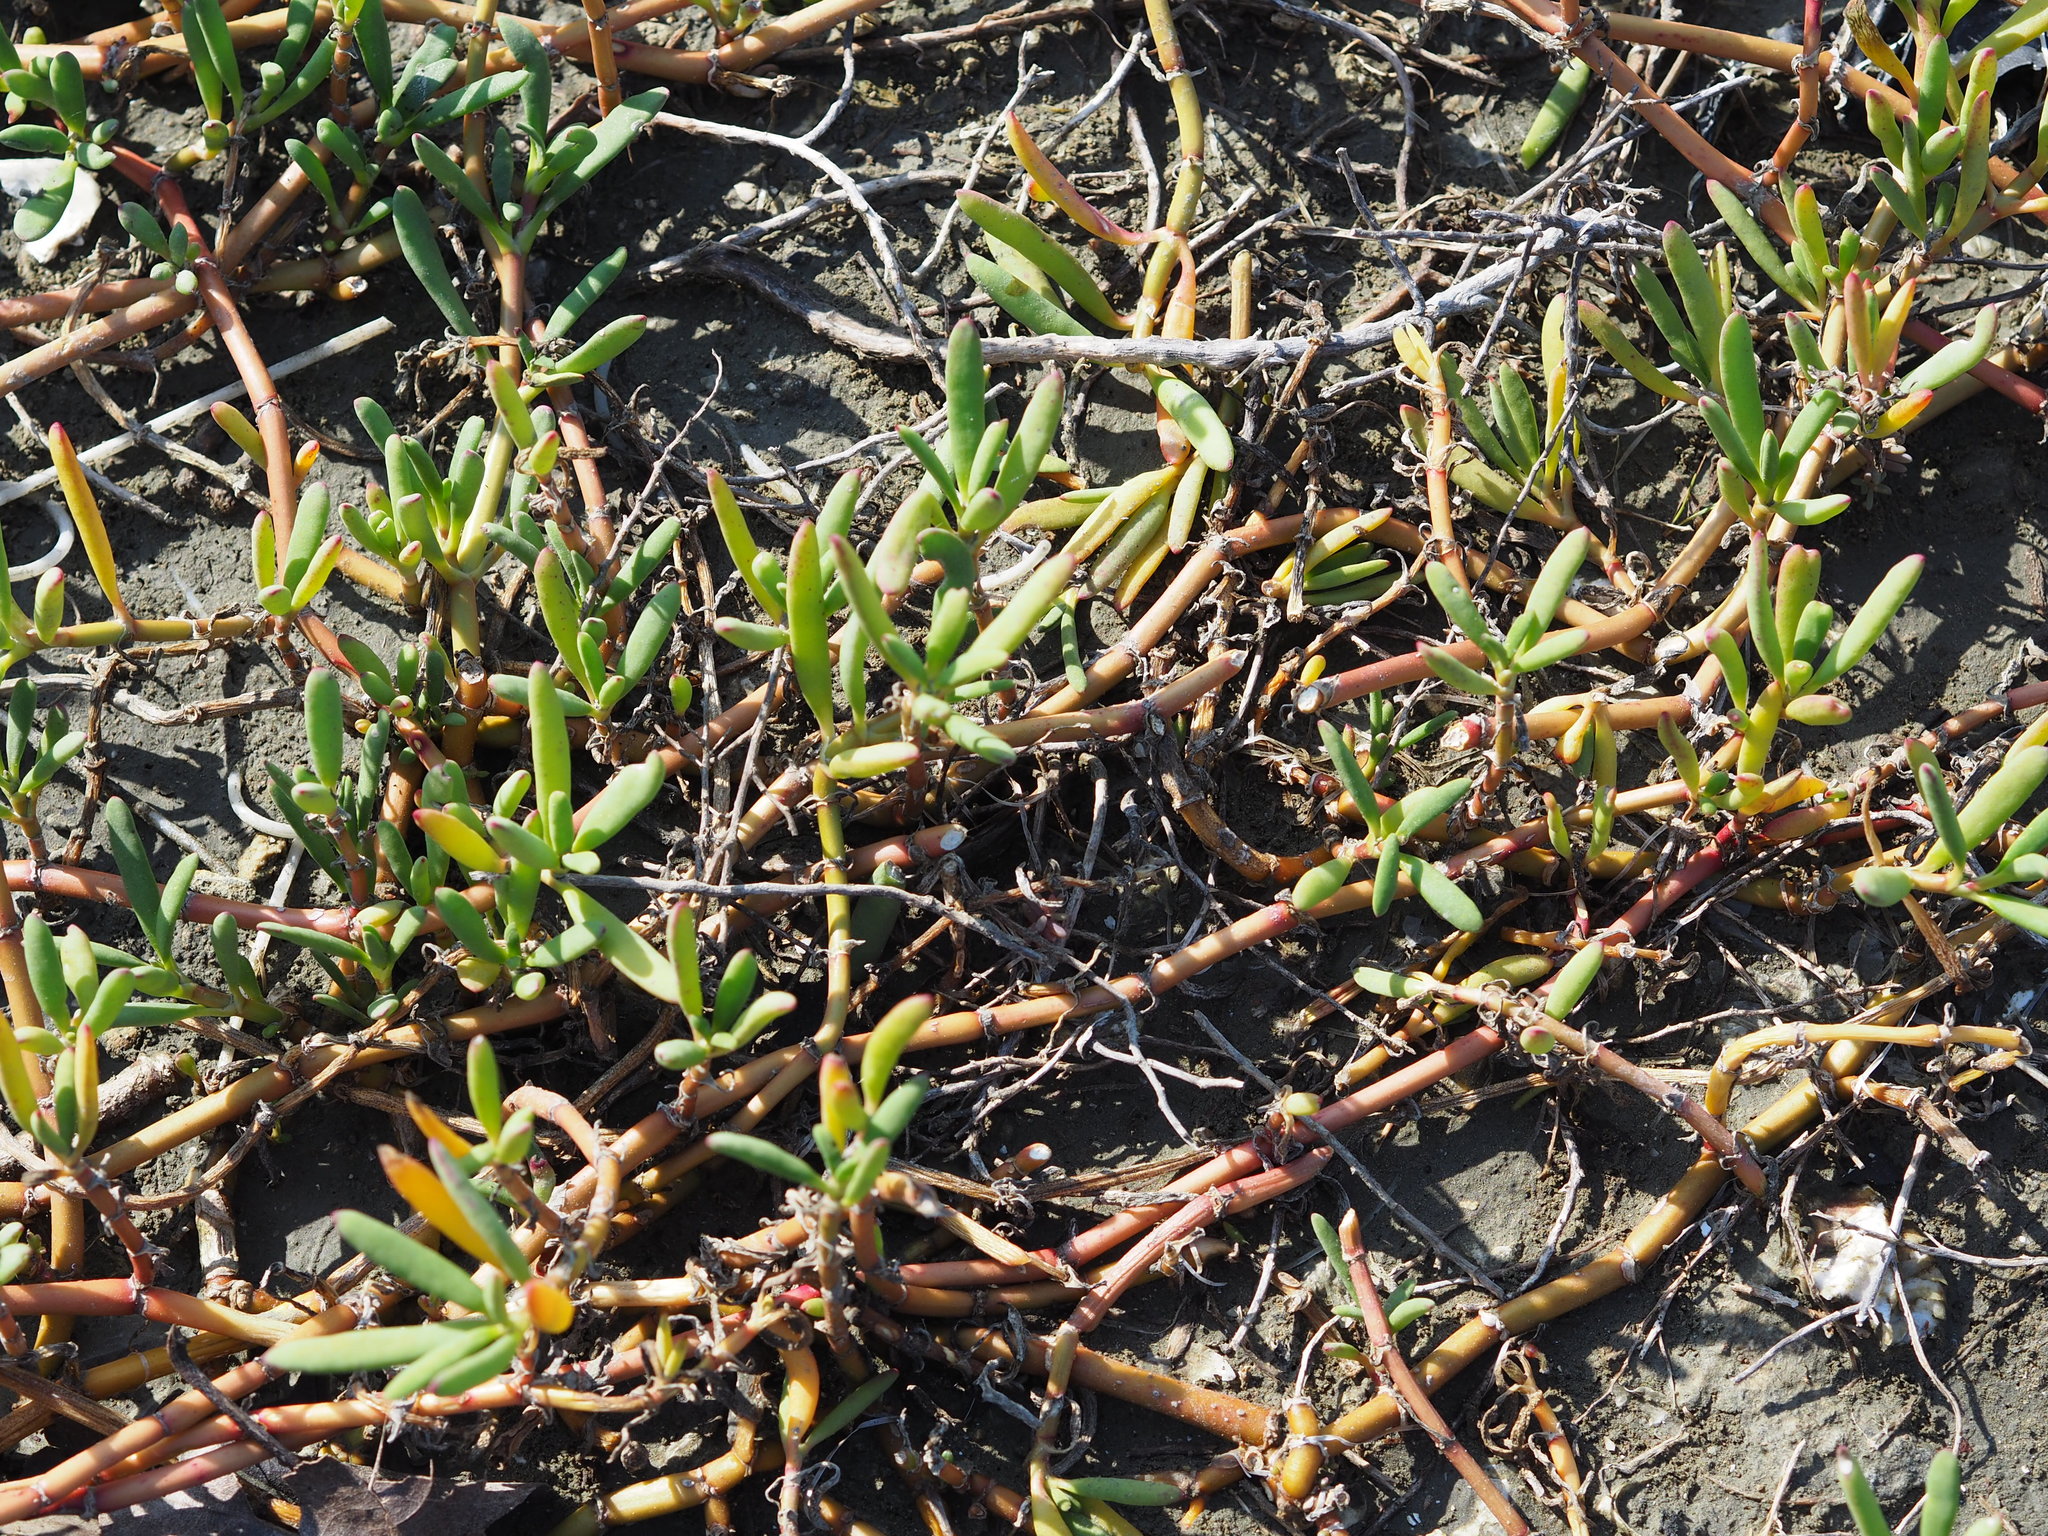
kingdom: Plantae
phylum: Tracheophyta
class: Magnoliopsida
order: Caryophyllales
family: Aizoaceae
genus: Sesuvium
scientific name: Sesuvium portulacastrum
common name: Sea-purslane
